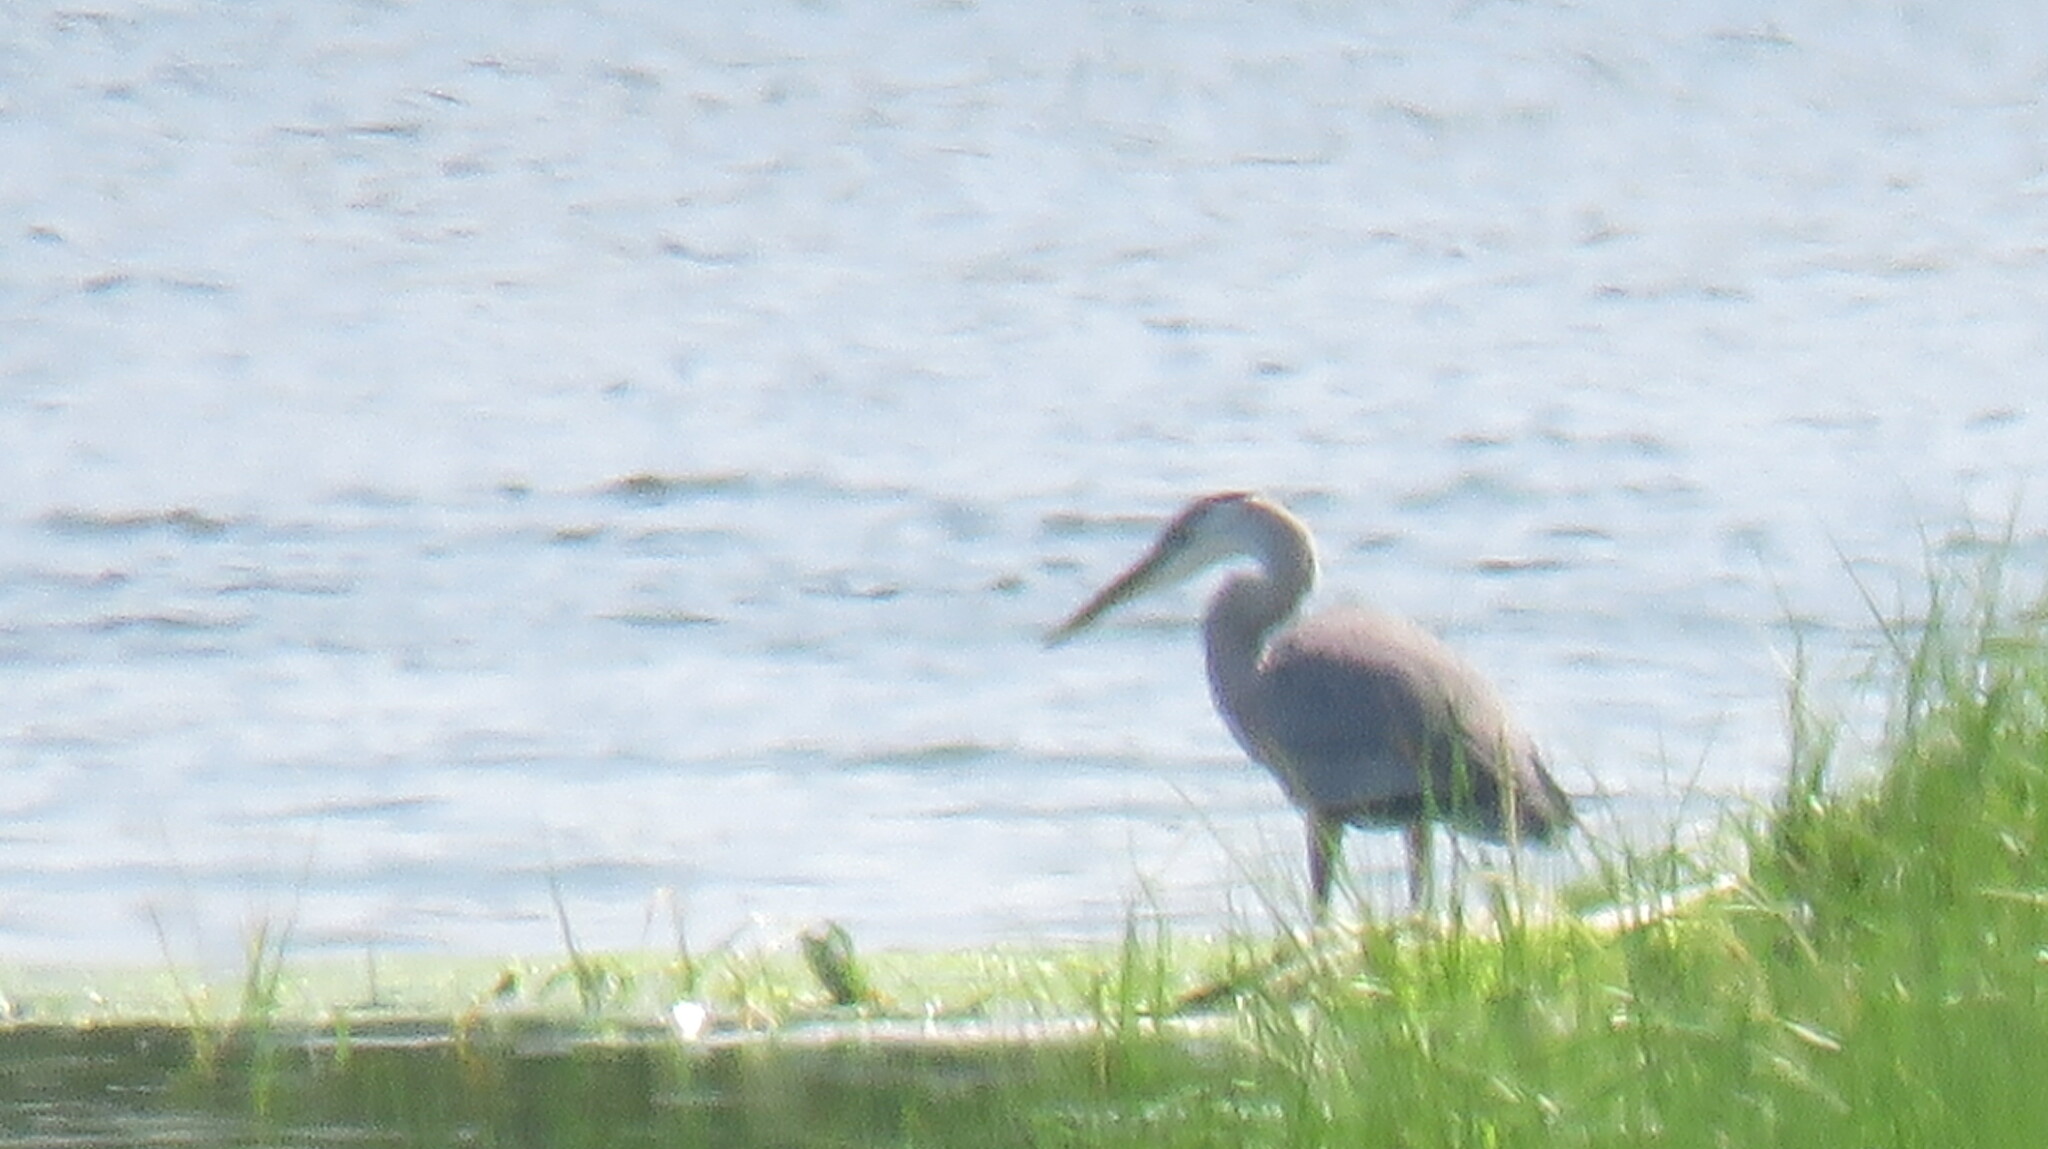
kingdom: Animalia
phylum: Chordata
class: Aves
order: Pelecaniformes
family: Ardeidae
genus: Ardea
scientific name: Ardea herodias
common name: Great blue heron
